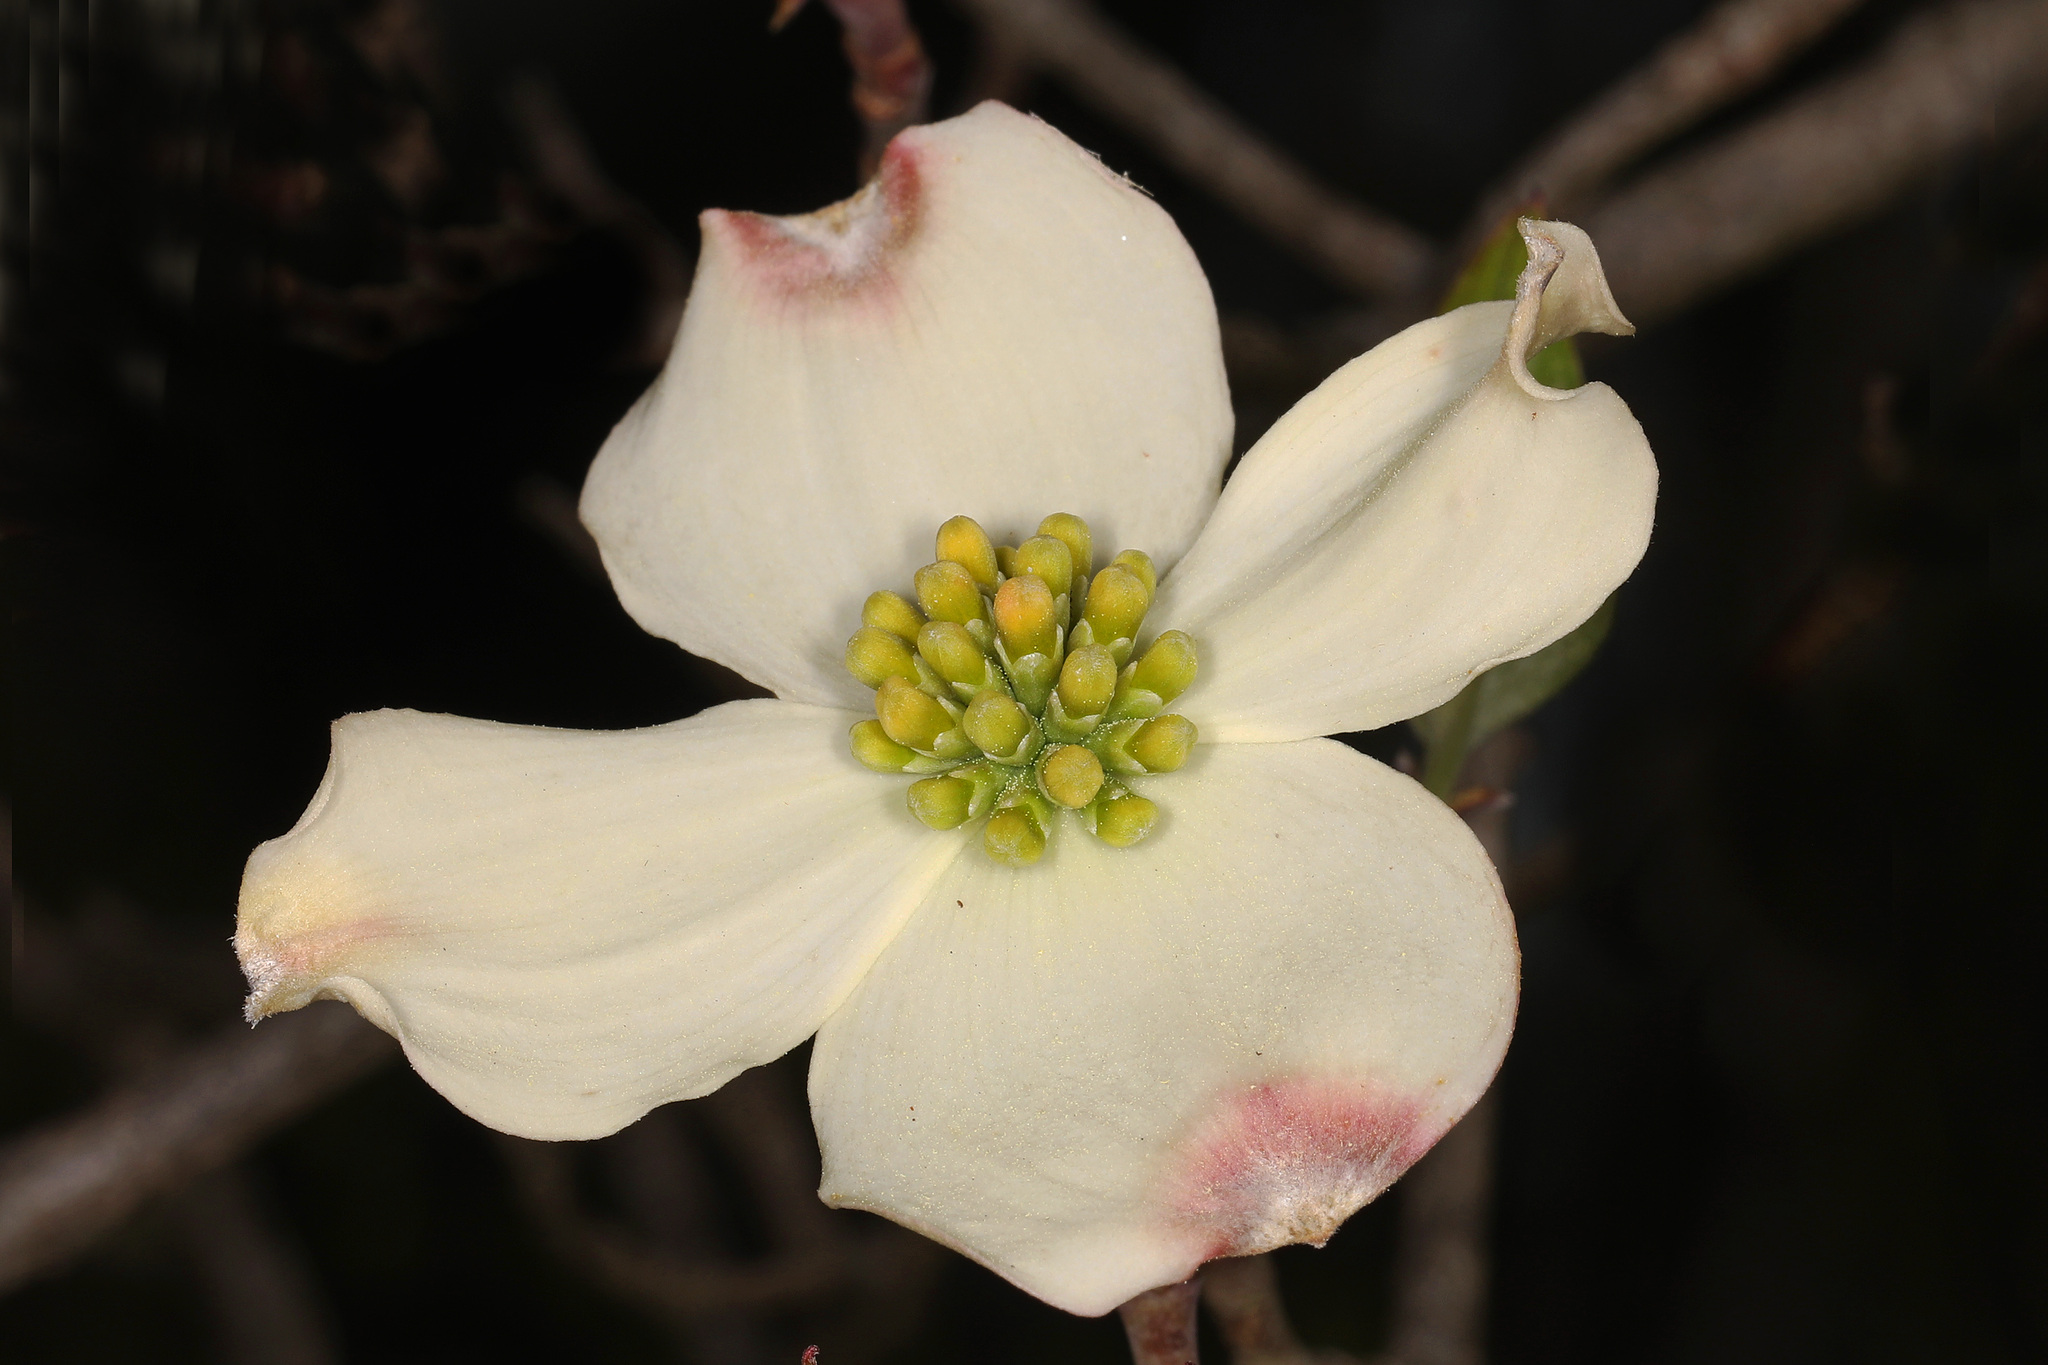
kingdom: Plantae
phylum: Tracheophyta
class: Magnoliopsida
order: Cornales
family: Cornaceae
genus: Cornus
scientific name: Cornus florida
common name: Flowering dogwood
